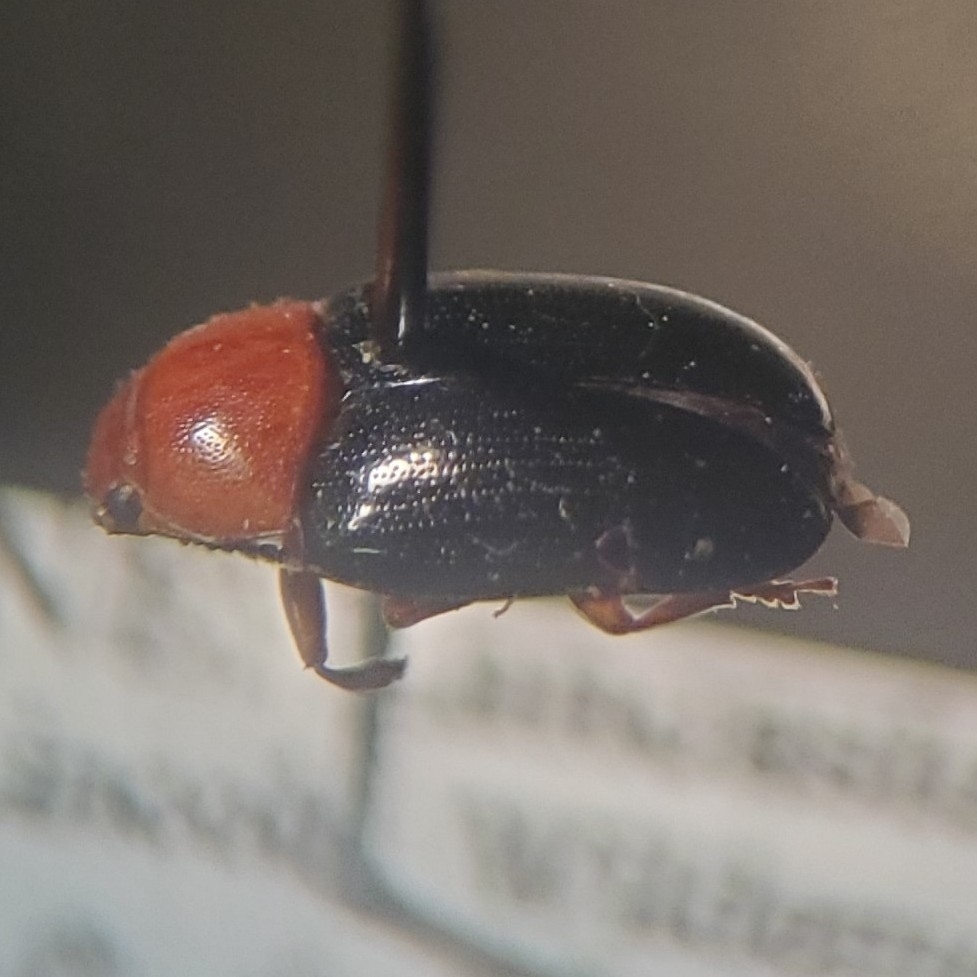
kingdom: Animalia
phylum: Arthropoda
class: Insecta
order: Coleoptera
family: Erotylidae
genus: Triplax
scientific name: Triplax thoracica
